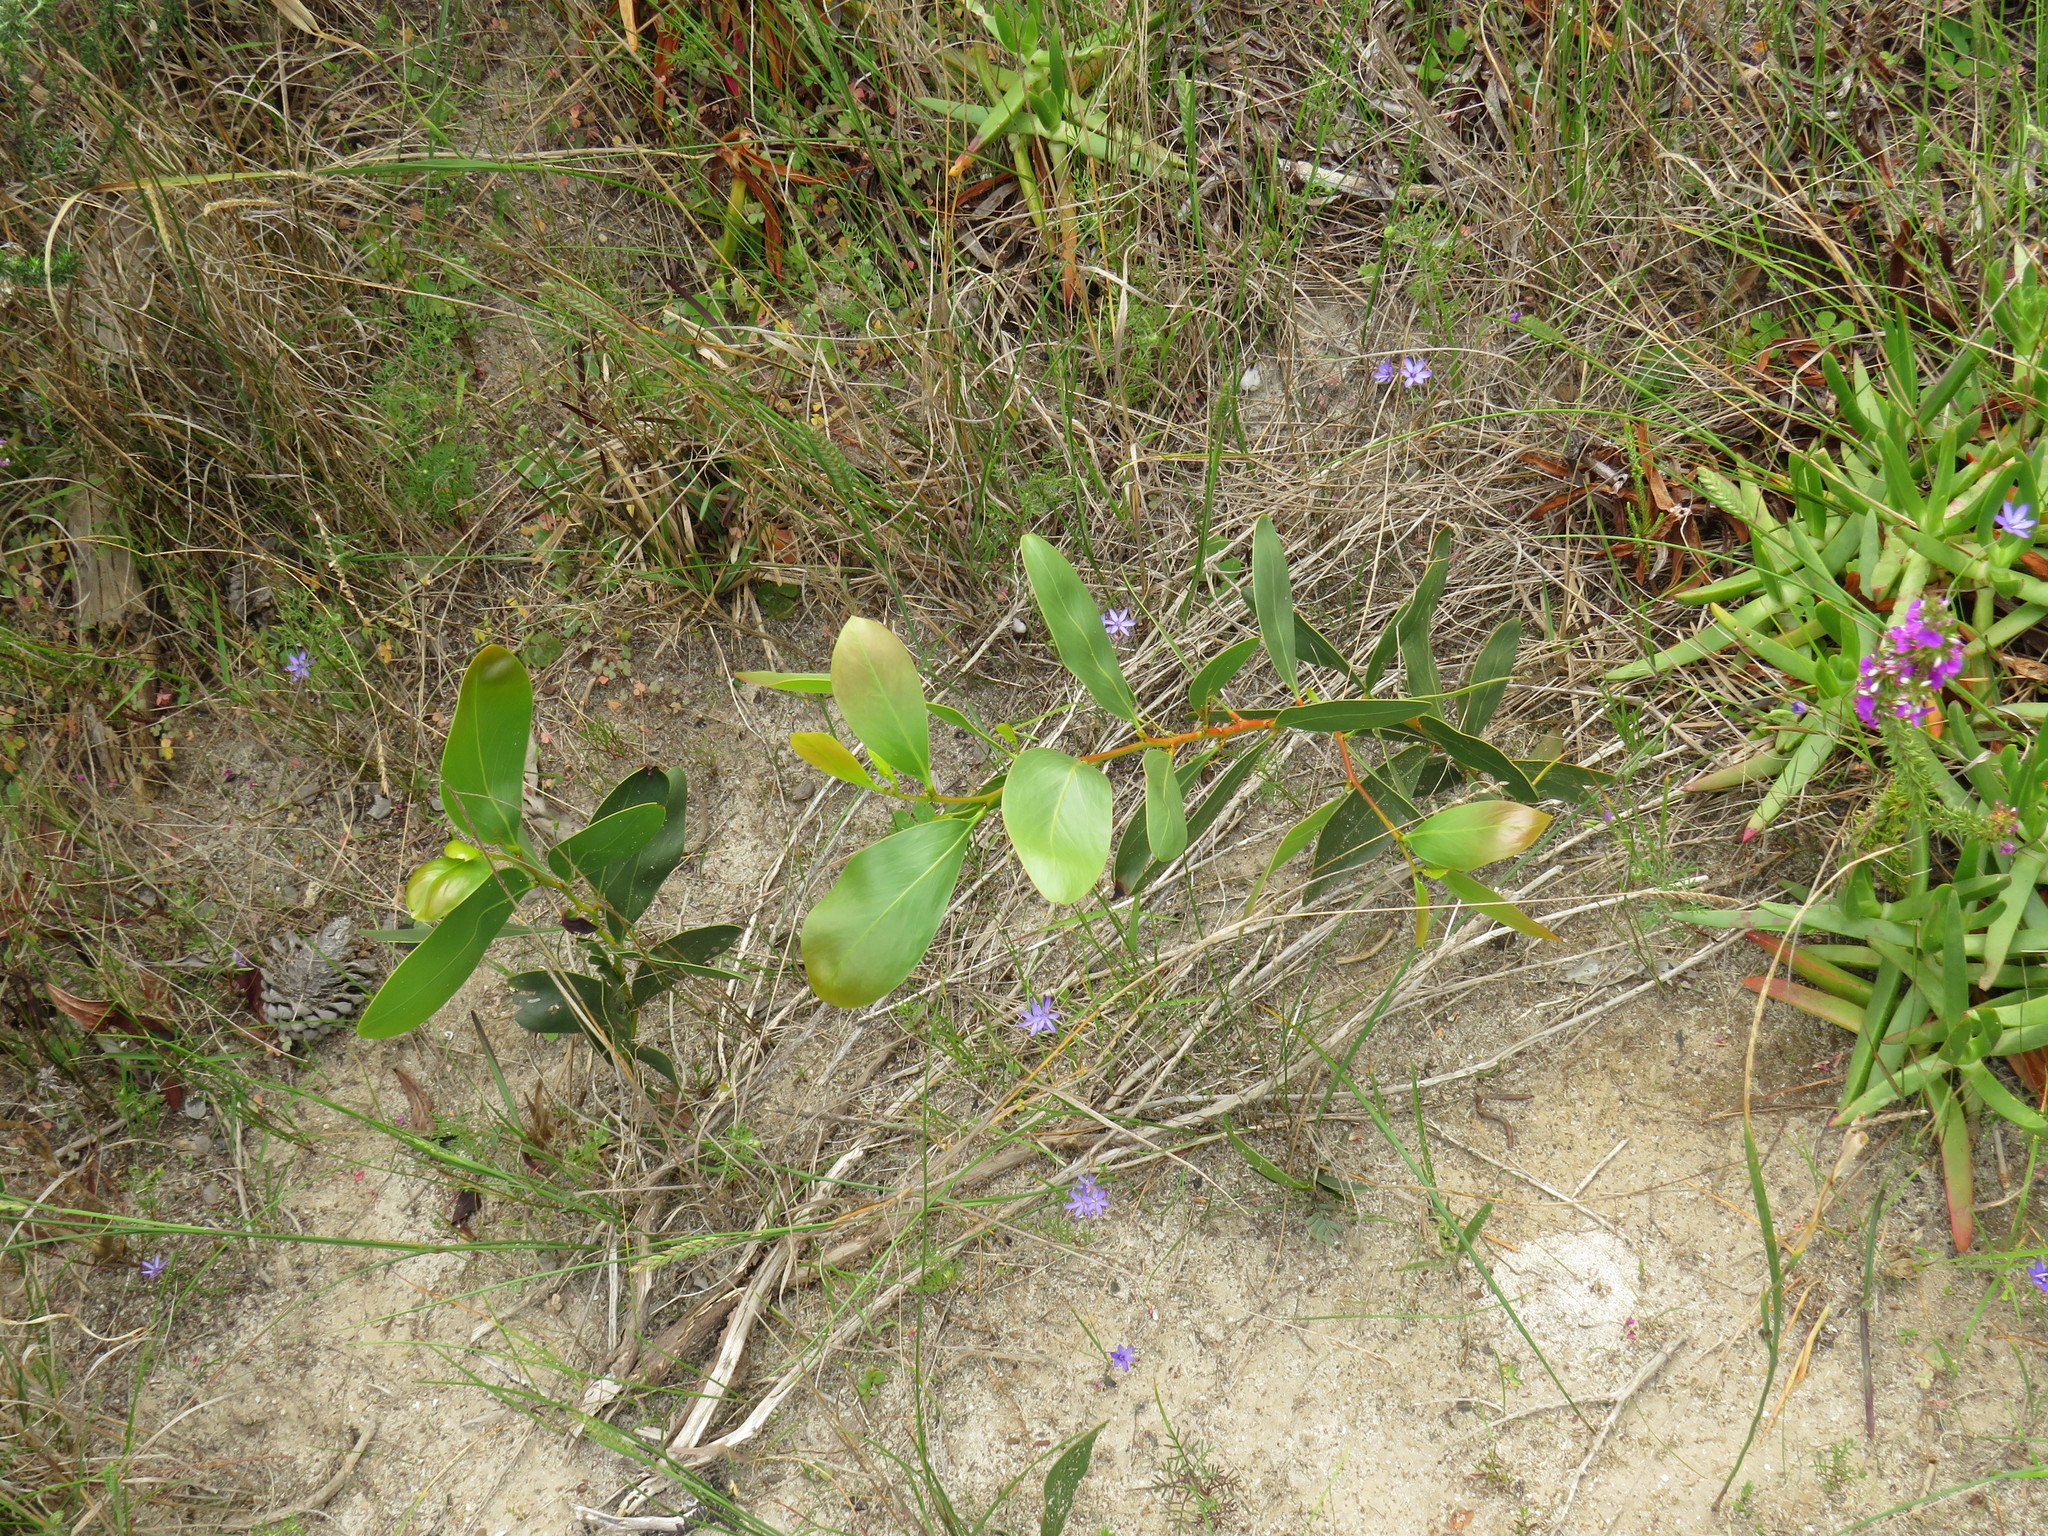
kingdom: Plantae
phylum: Tracheophyta
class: Magnoliopsida
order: Fabales
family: Fabaceae
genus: Acacia
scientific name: Acacia pycnantha
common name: Golden wattle
